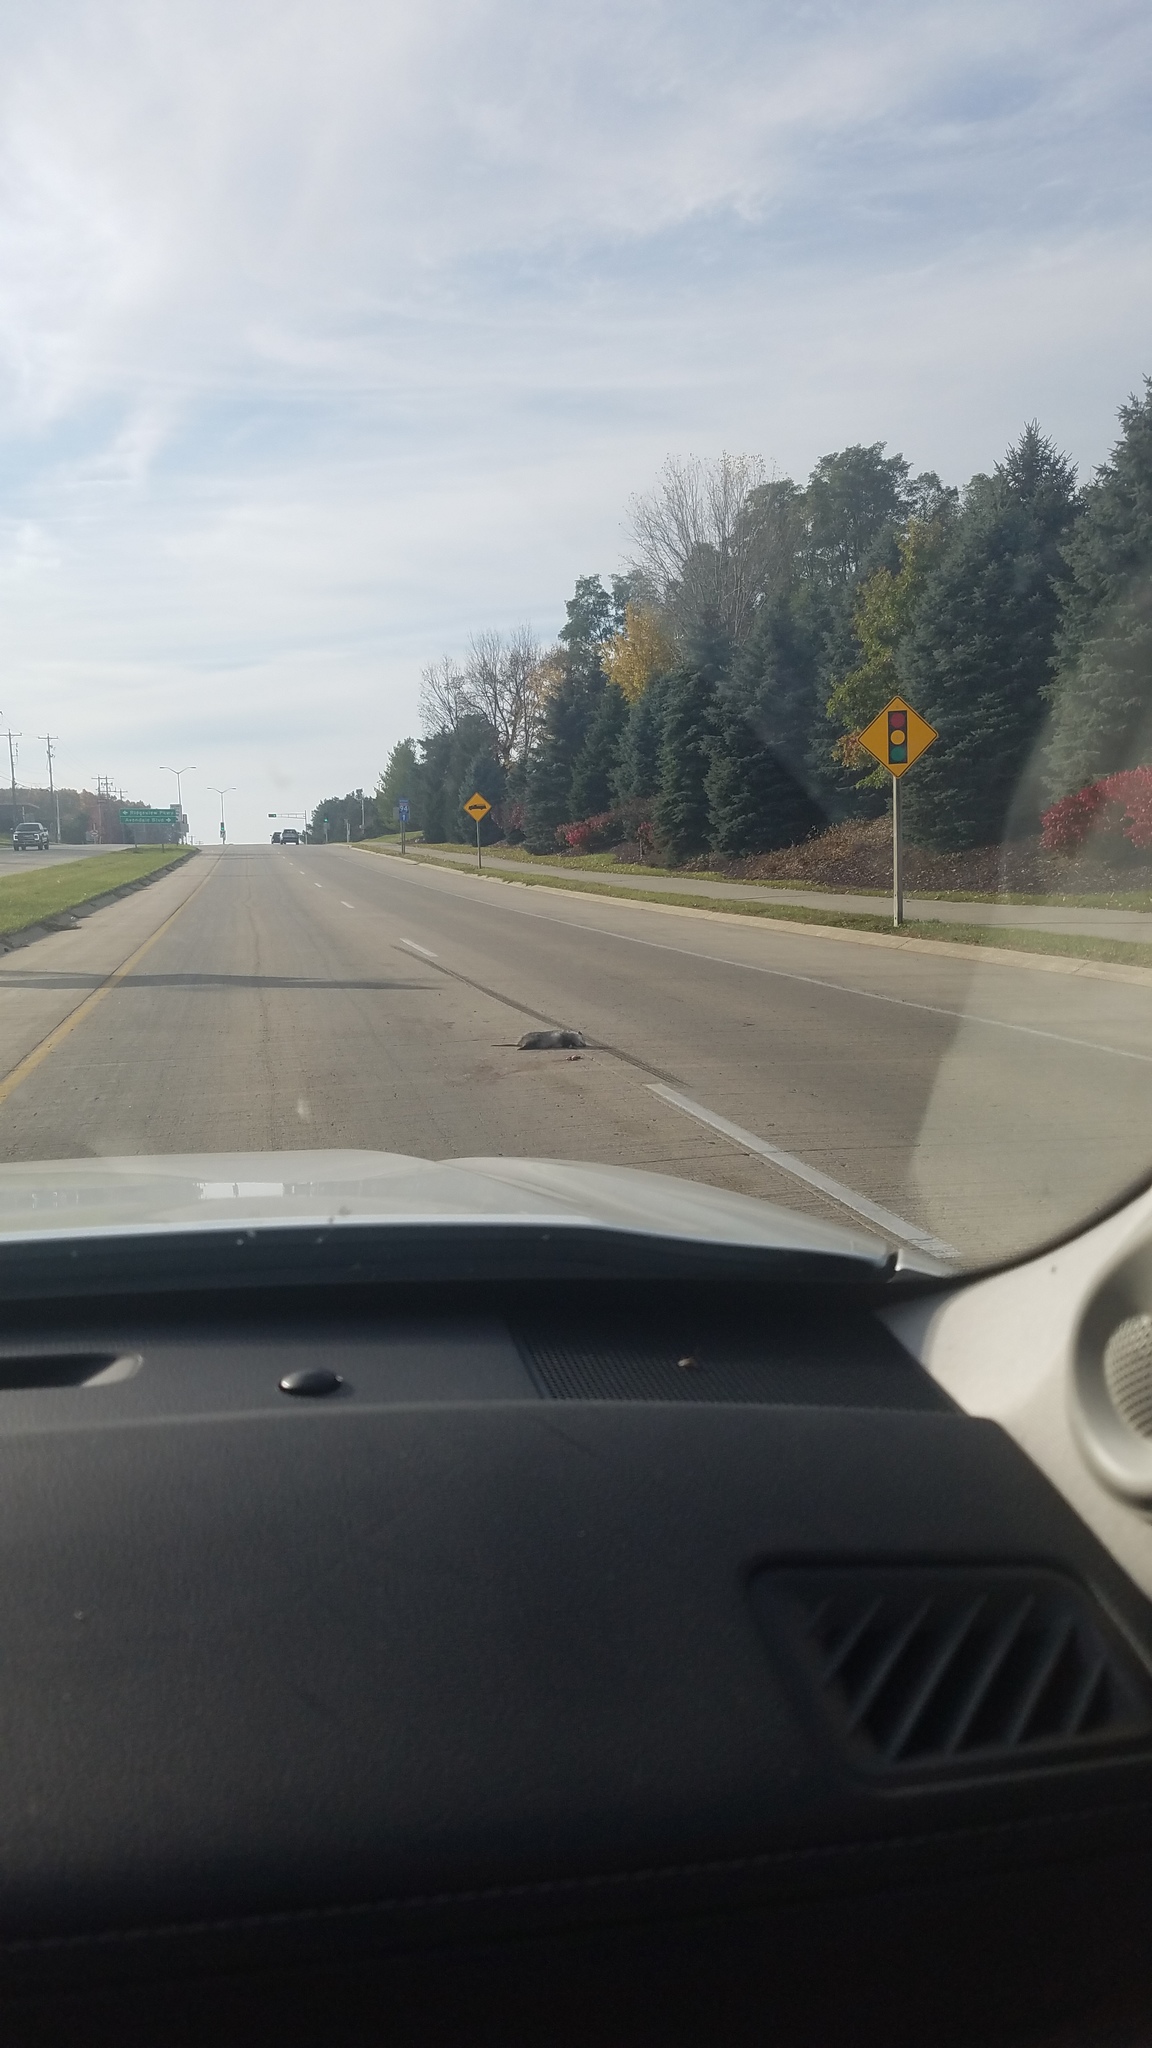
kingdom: Animalia
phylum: Chordata
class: Mammalia
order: Didelphimorphia
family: Didelphidae
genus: Didelphis
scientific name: Didelphis virginiana
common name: Virginia opossum
